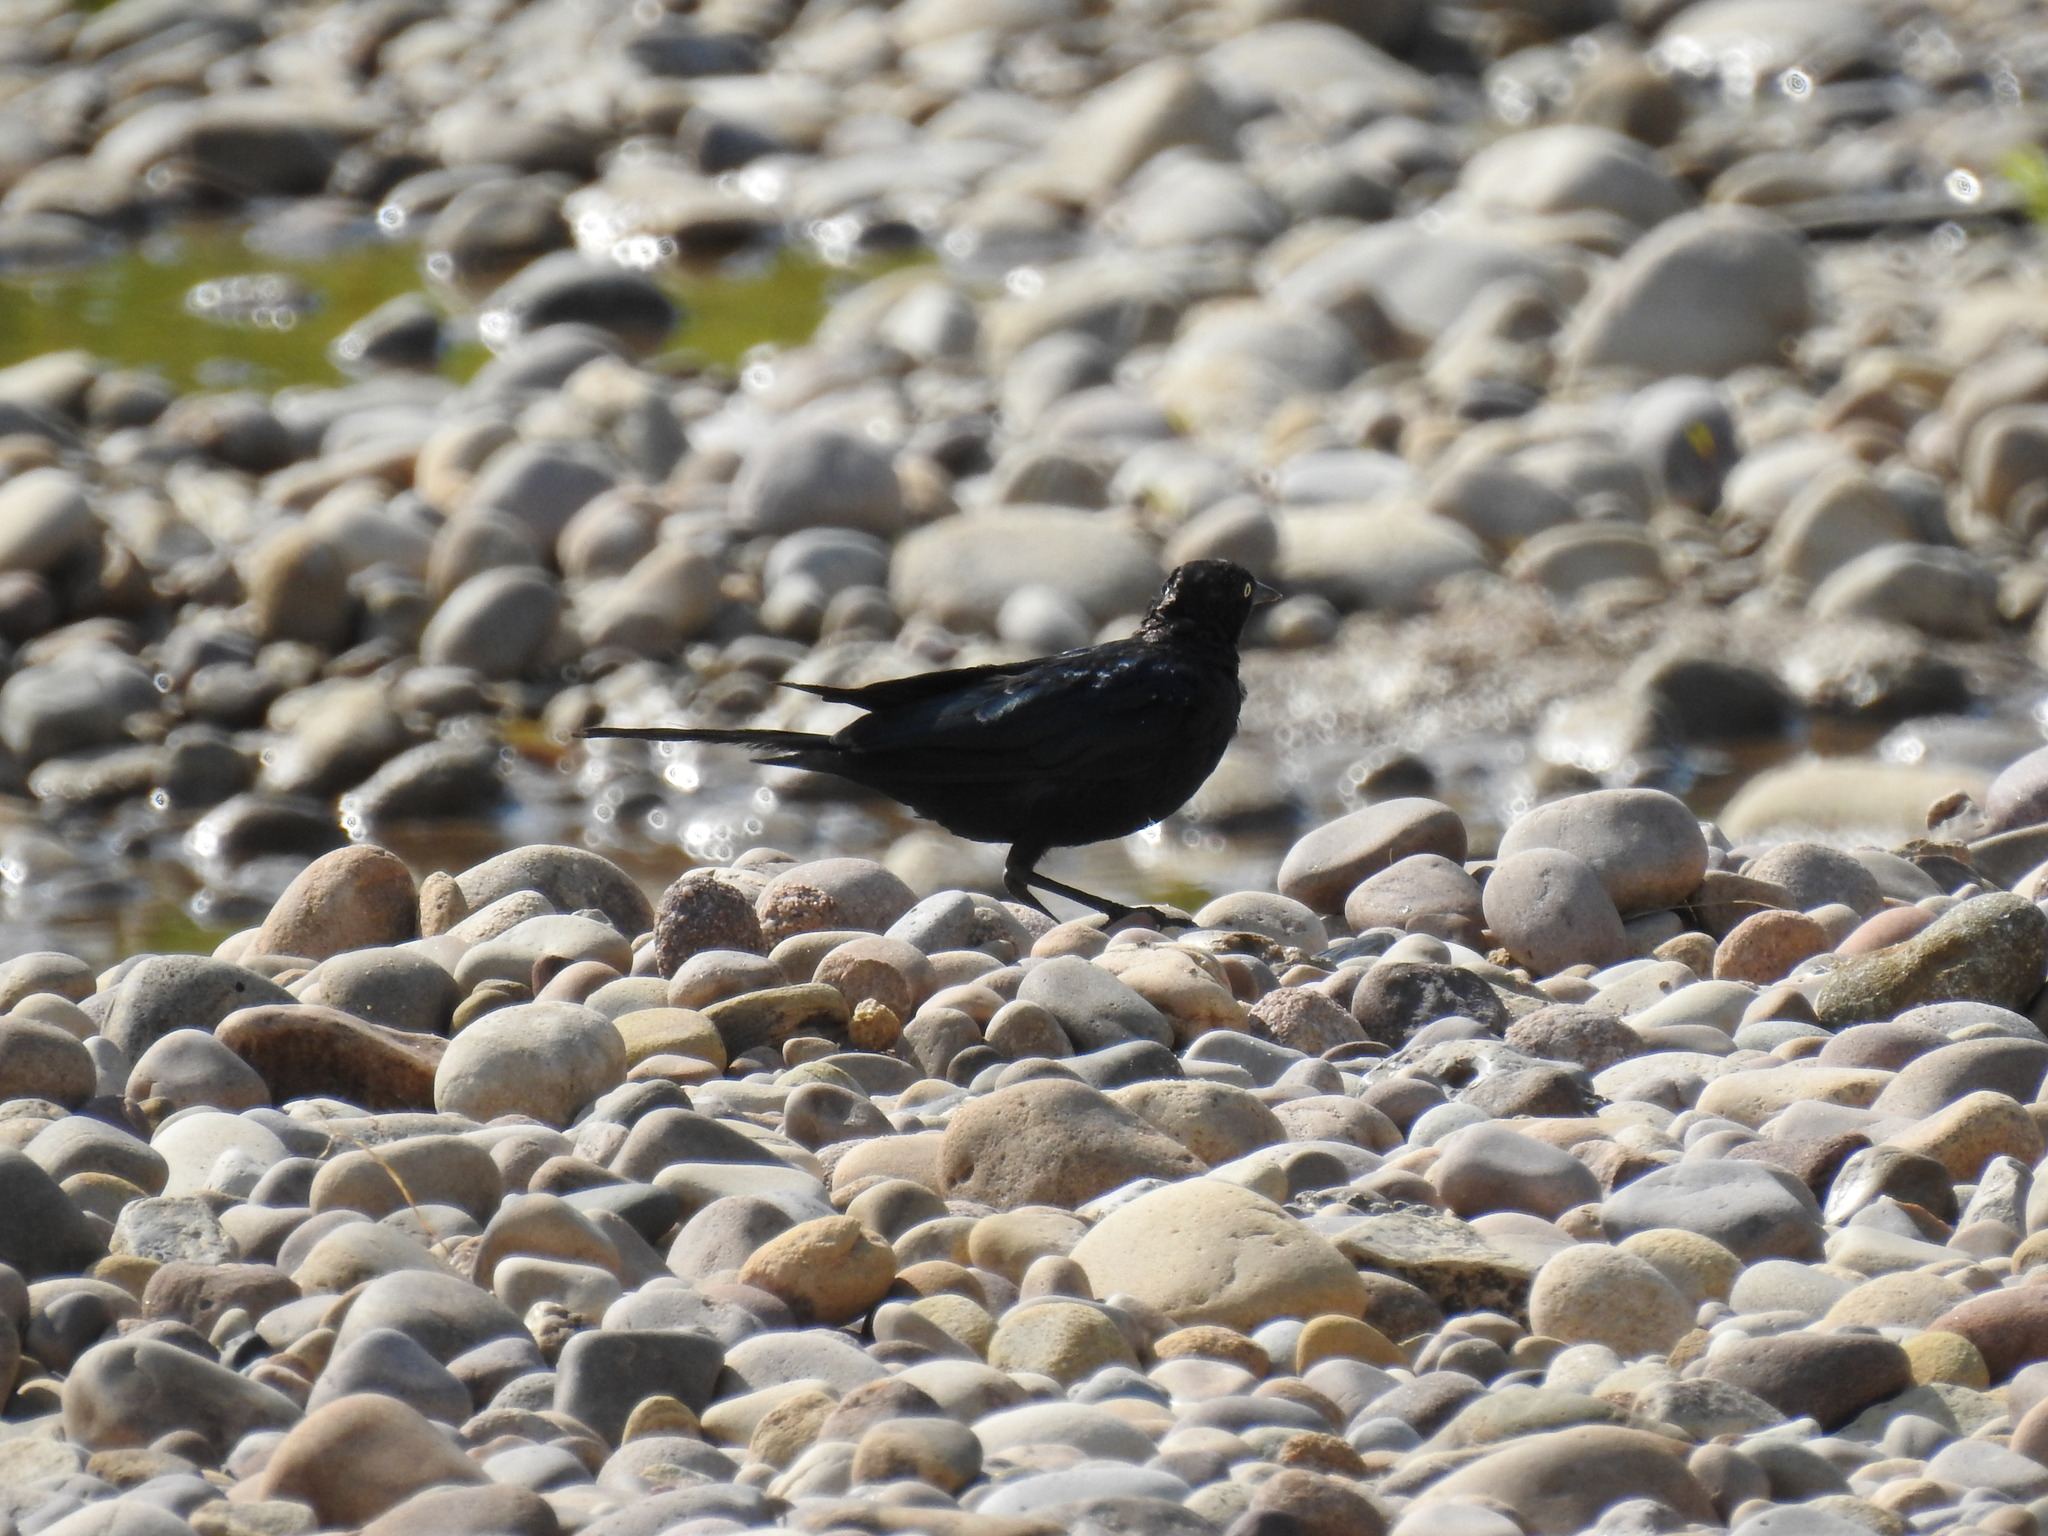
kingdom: Animalia
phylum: Chordata
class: Aves
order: Passeriformes
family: Icteridae
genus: Euphagus
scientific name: Euphagus cyanocephalus
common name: Brewer's blackbird
